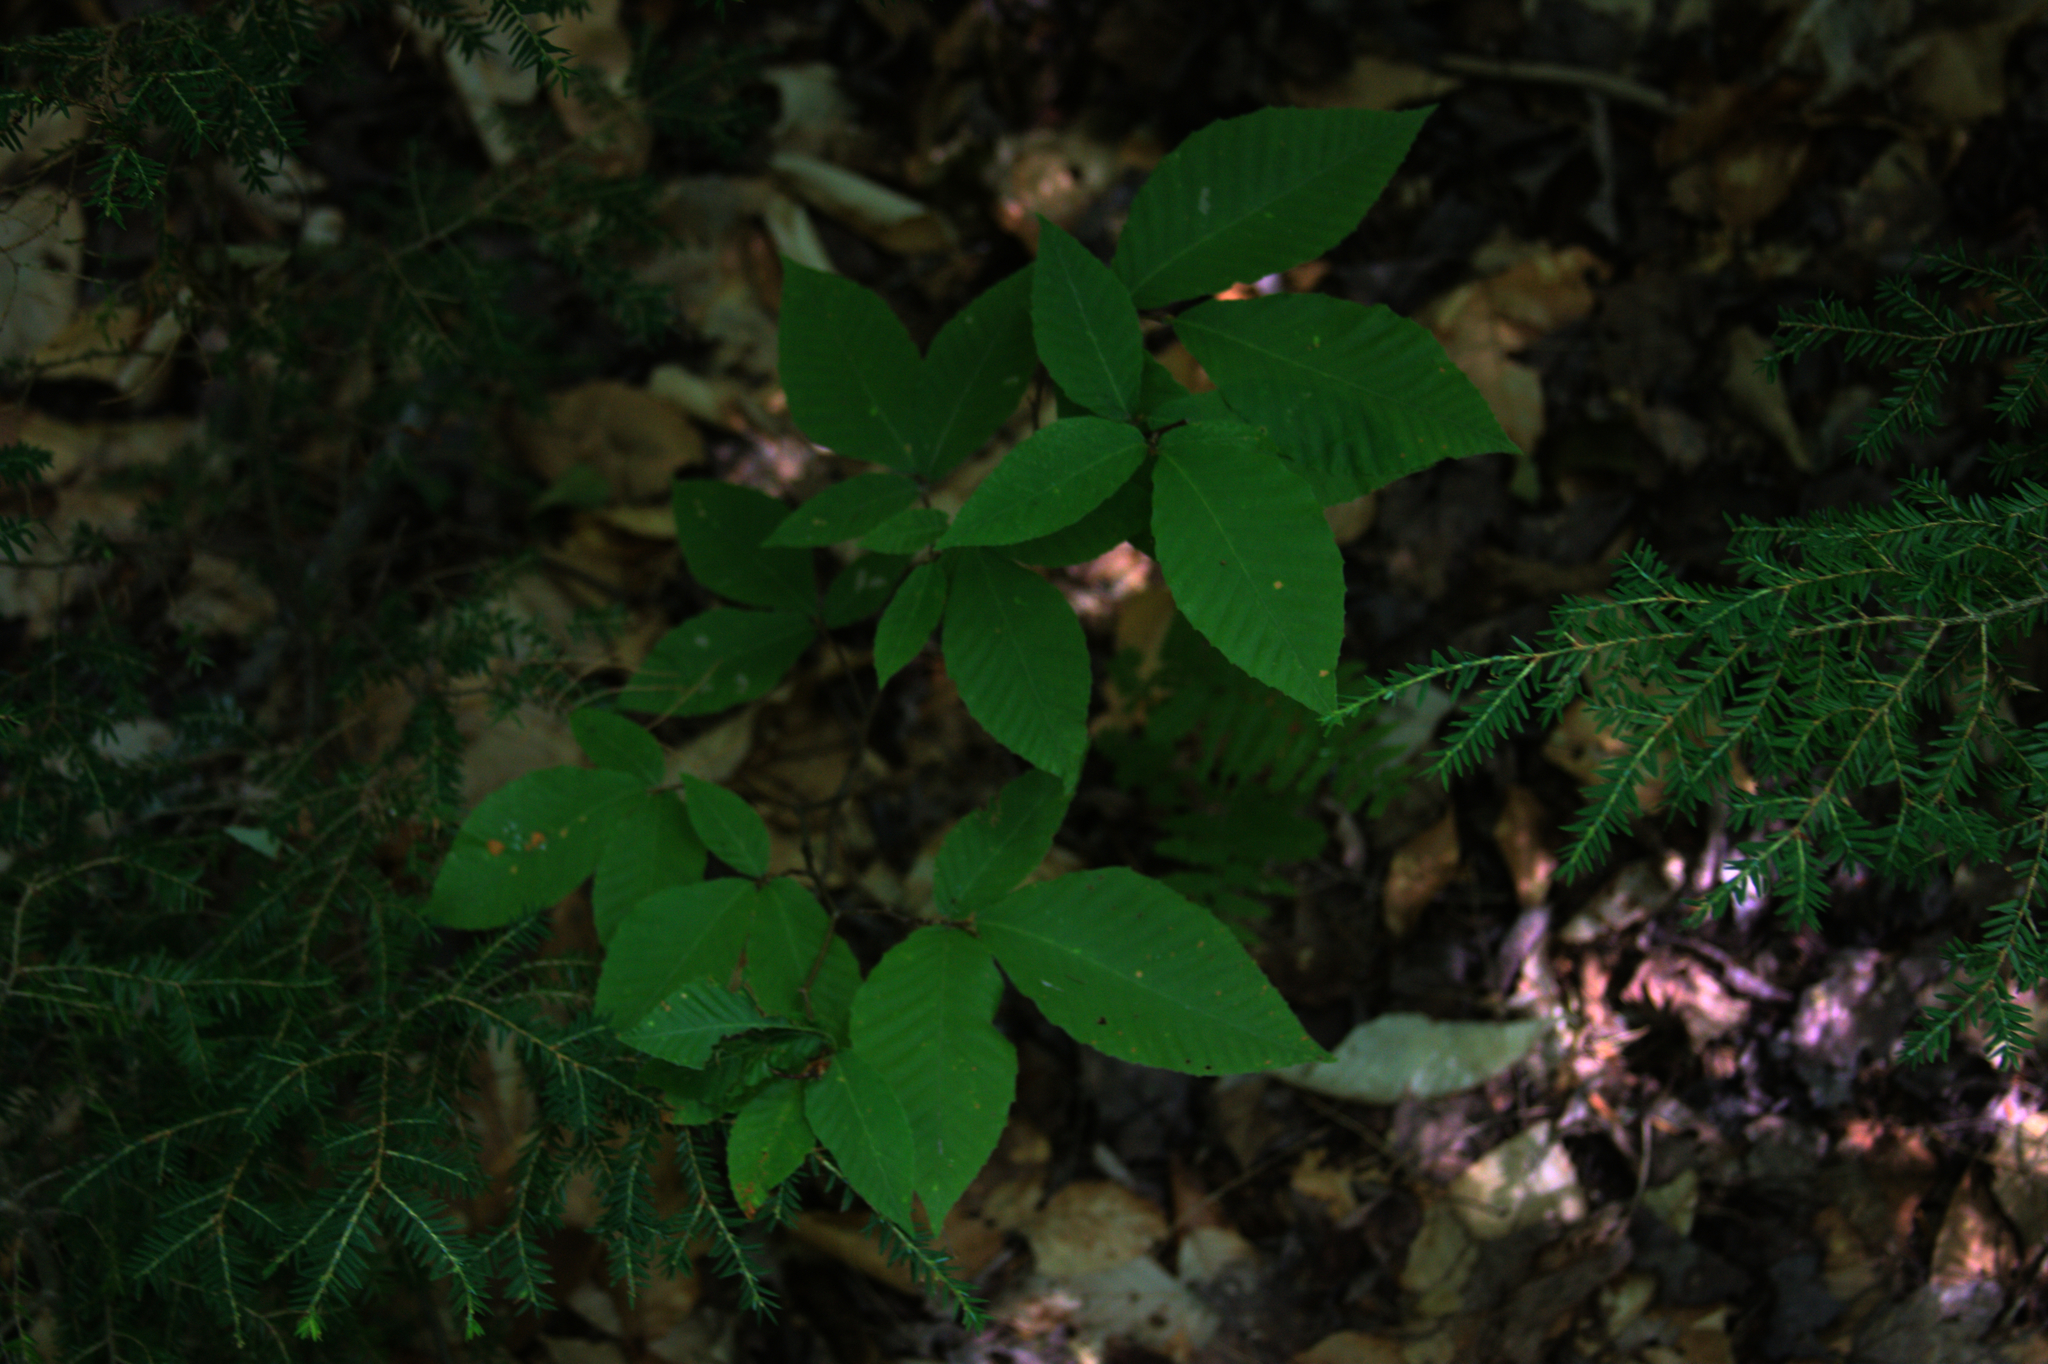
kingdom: Plantae
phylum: Tracheophyta
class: Magnoliopsida
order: Fagales
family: Fagaceae
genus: Fagus
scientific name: Fagus grandifolia
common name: American beech
